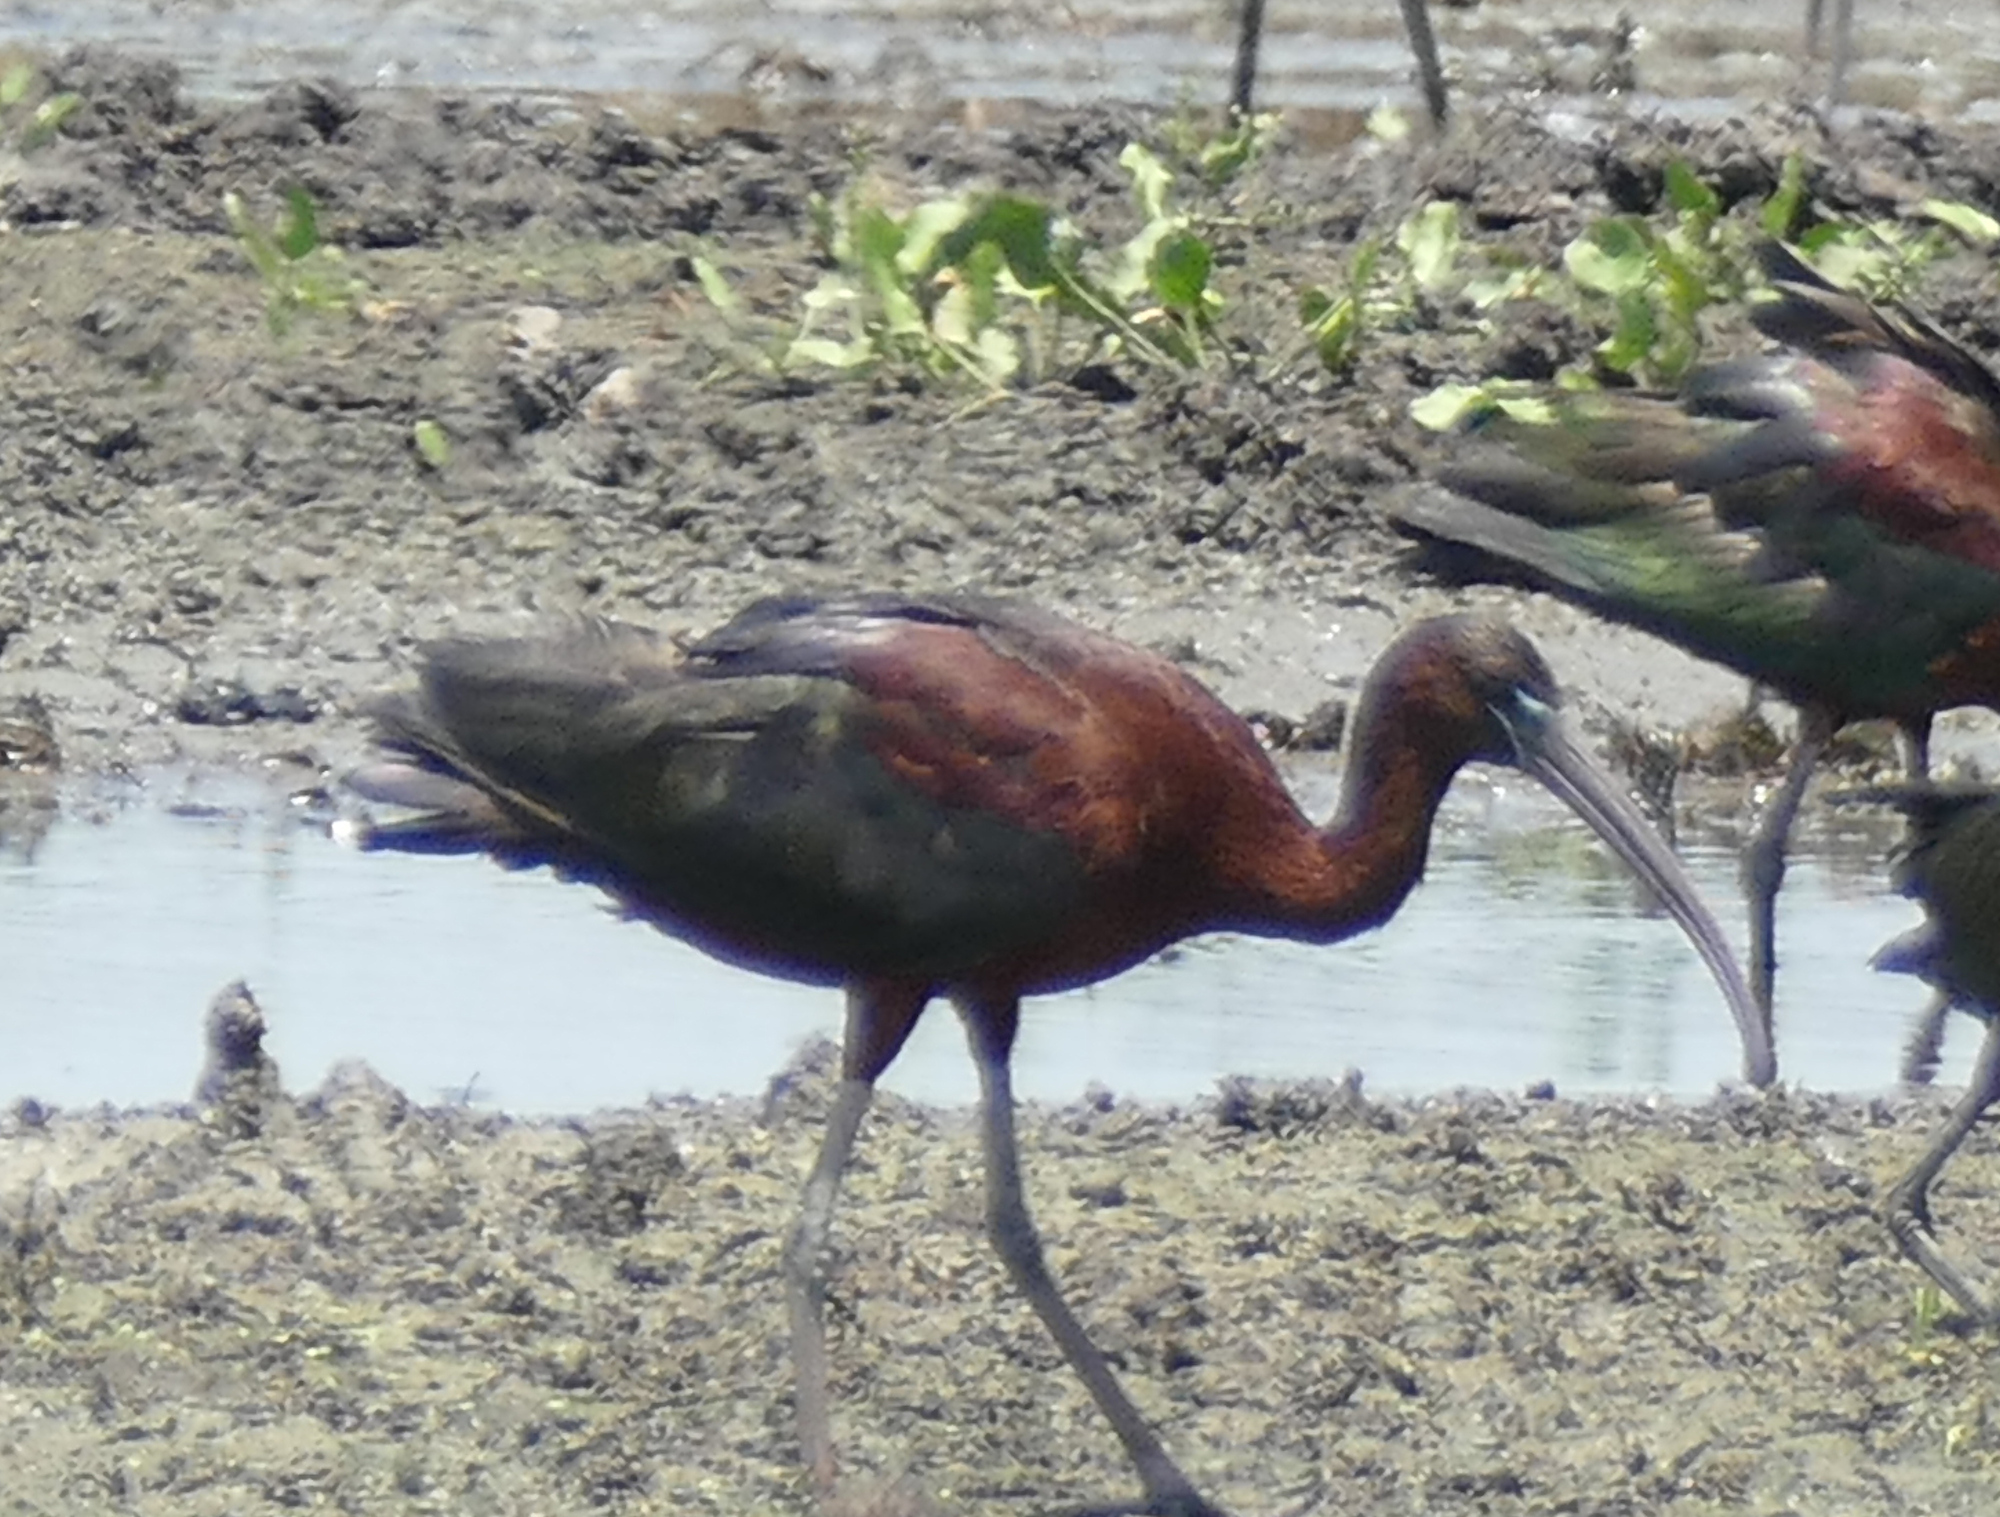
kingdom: Animalia
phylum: Chordata
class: Aves
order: Pelecaniformes
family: Threskiornithidae
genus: Plegadis
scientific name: Plegadis falcinellus
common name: Glossy ibis
